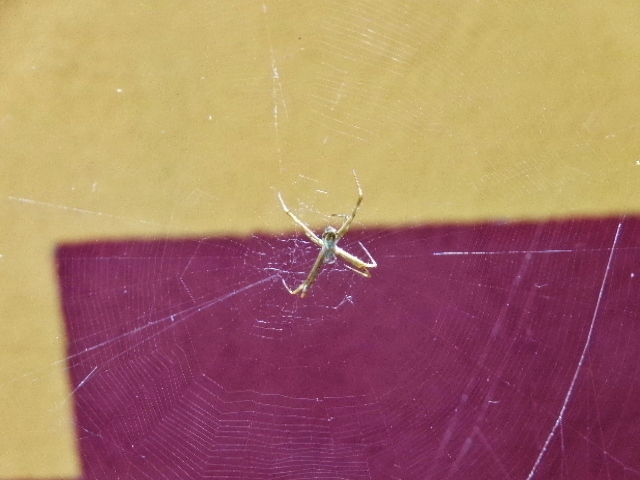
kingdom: Animalia
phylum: Arthropoda
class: Arachnida
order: Araneae
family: Araneidae
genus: Argiope
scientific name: Argiope argentata
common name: Orb weavers
